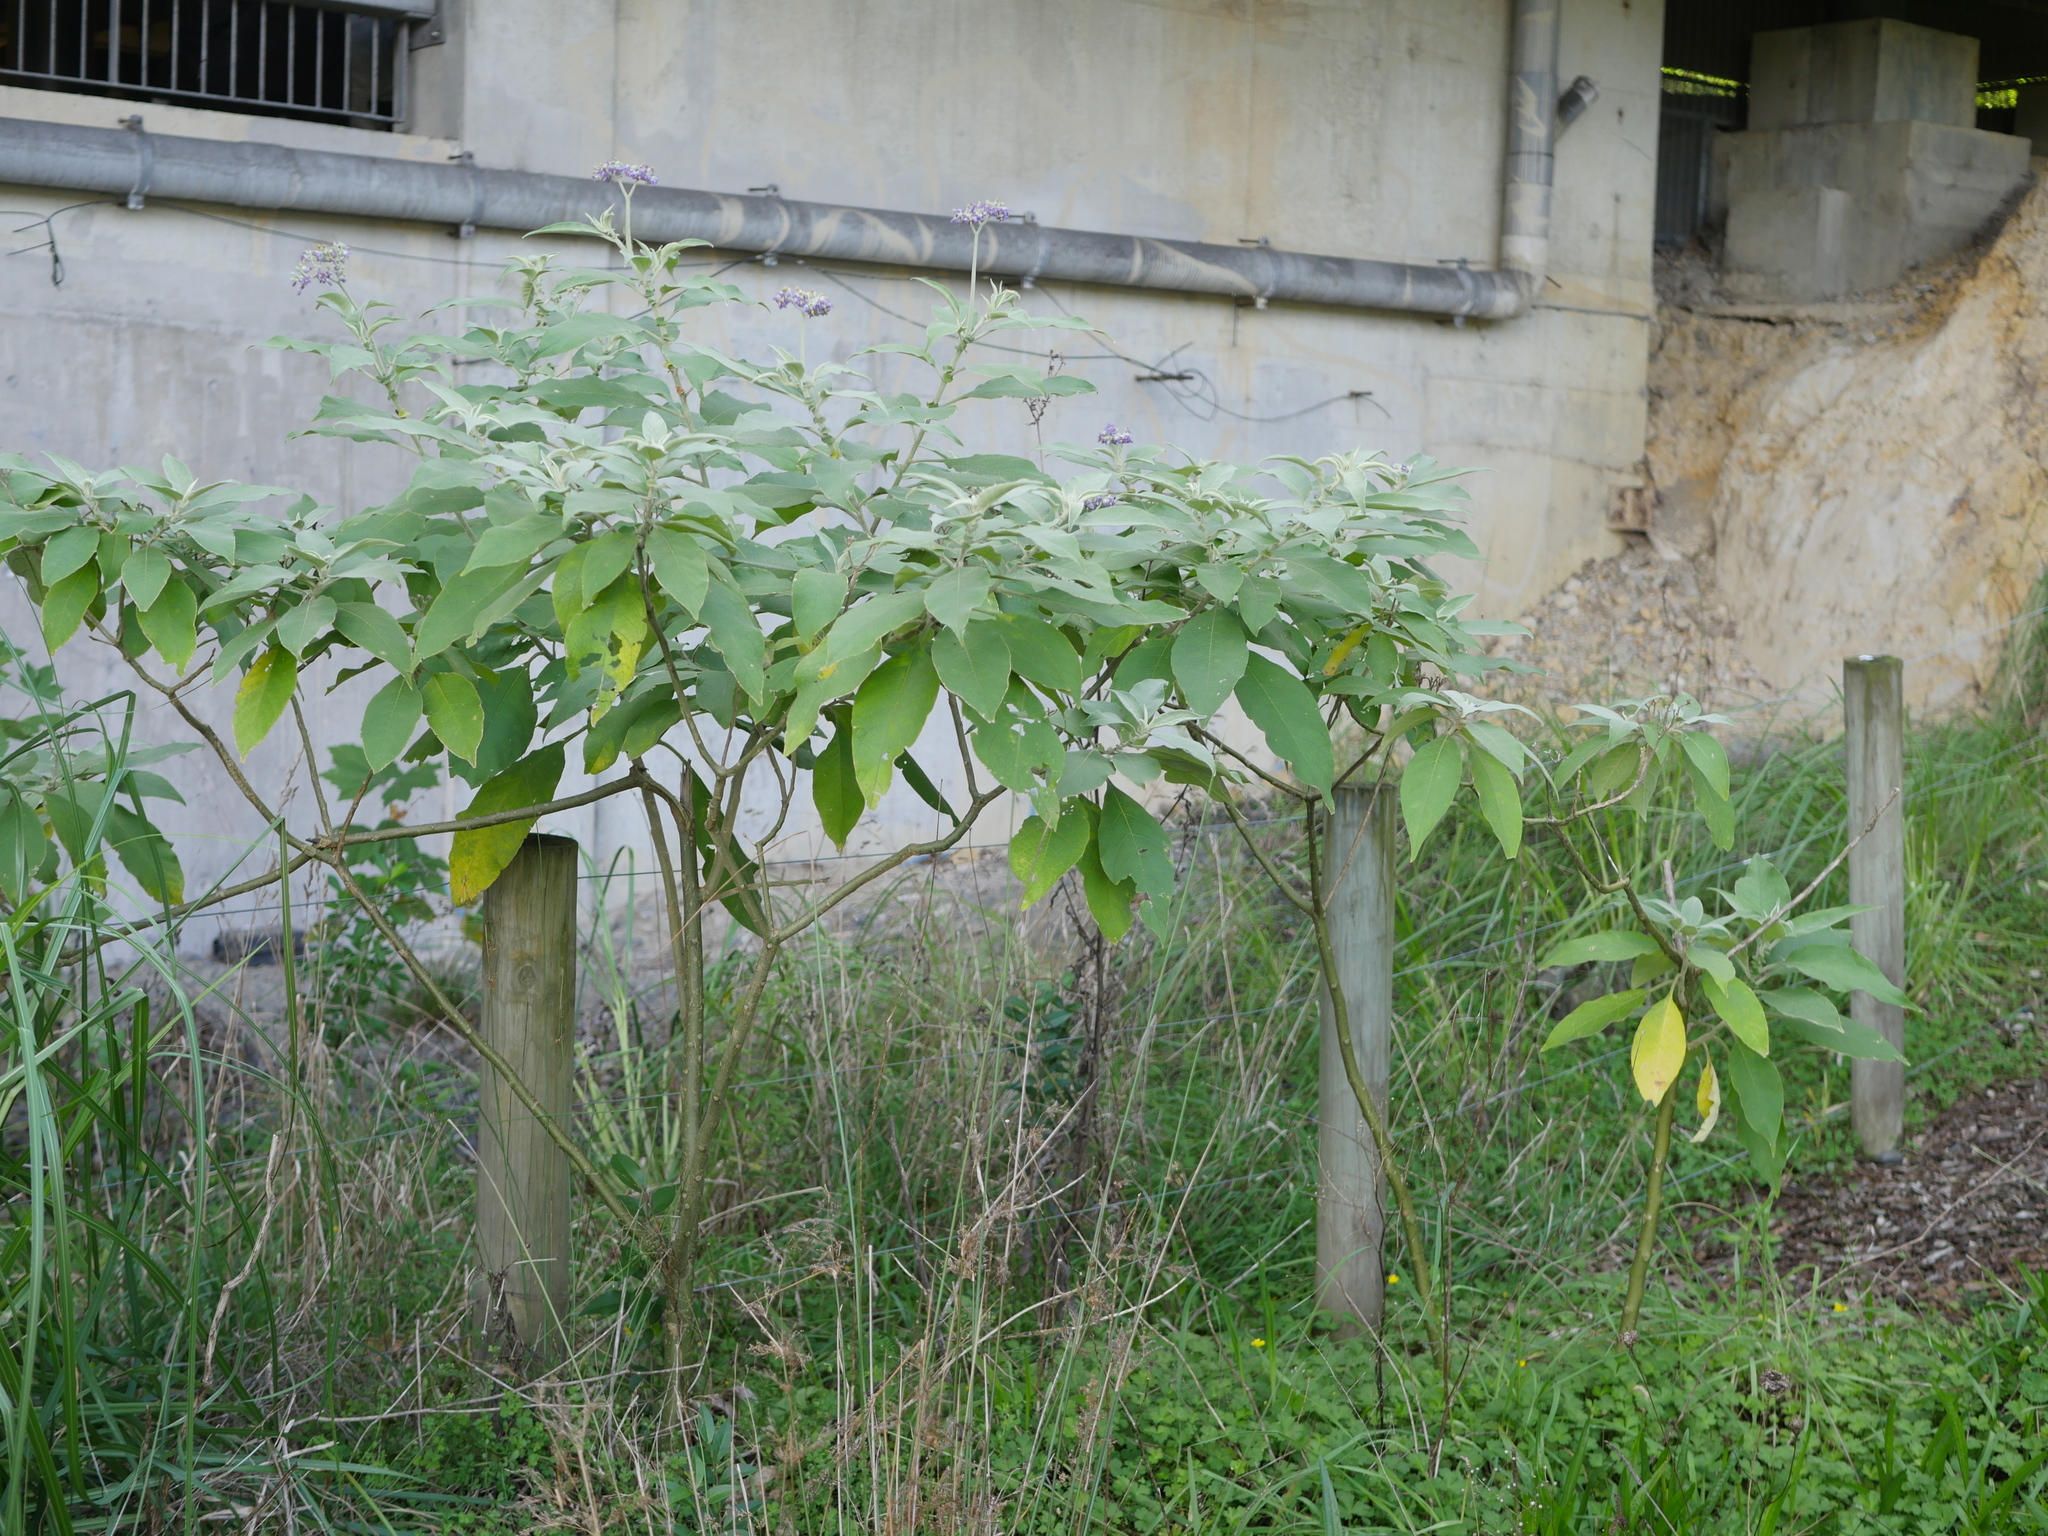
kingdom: Plantae
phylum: Tracheophyta
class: Magnoliopsida
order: Solanales
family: Solanaceae
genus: Solanum
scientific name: Solanum mauritianum
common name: Earleaf nightshade
